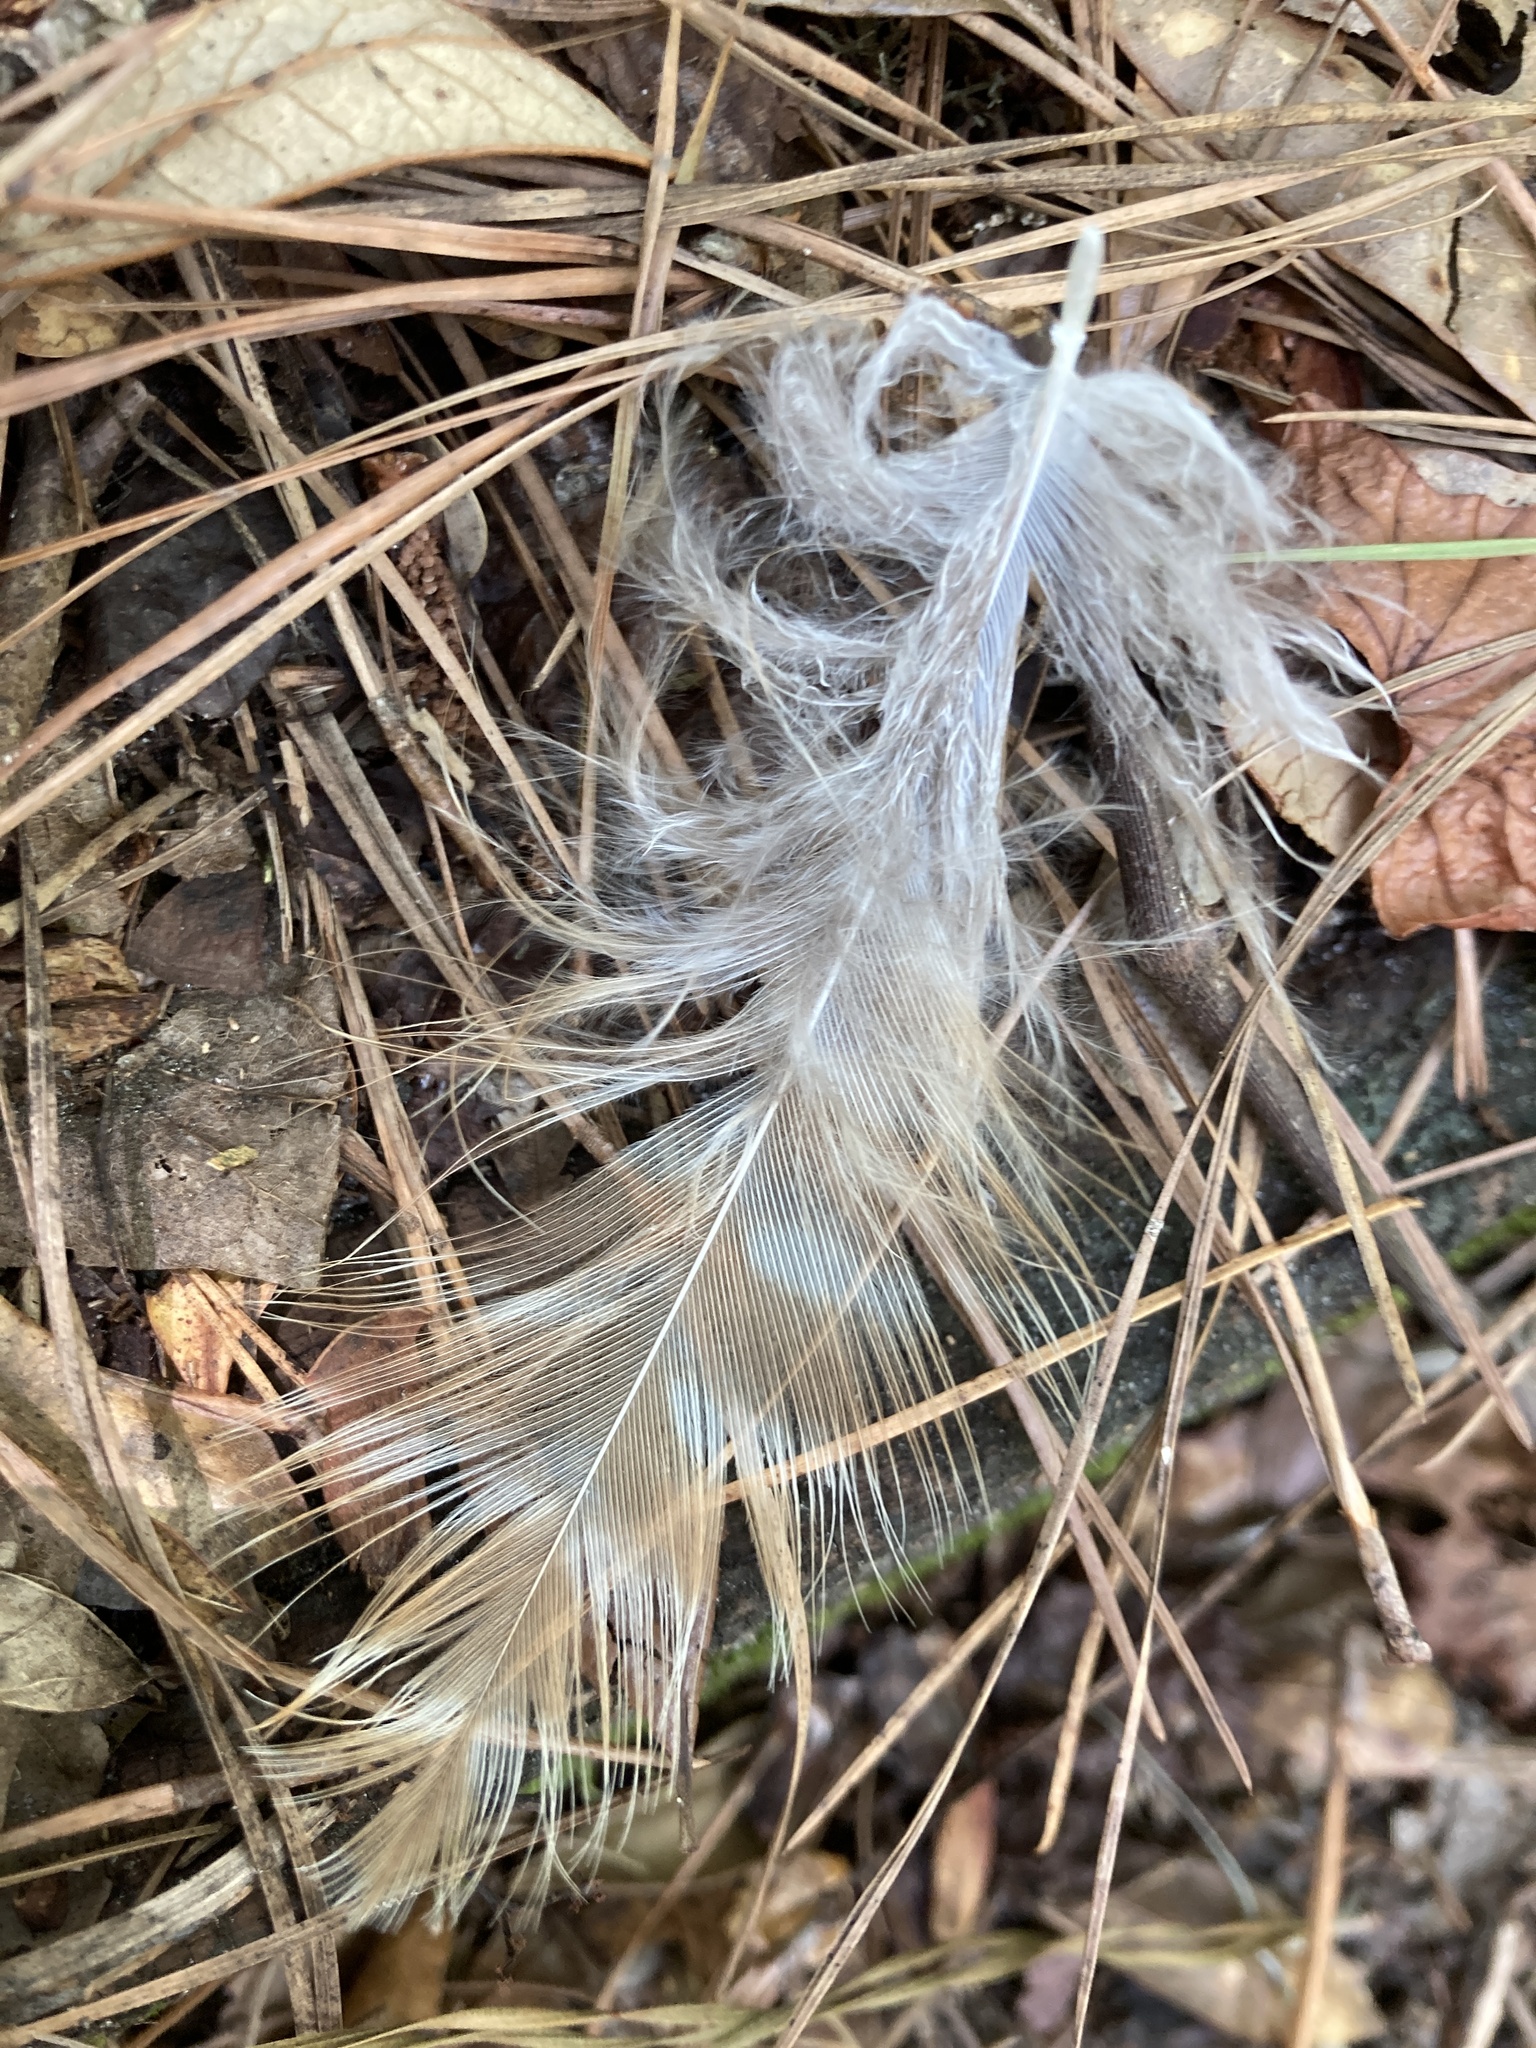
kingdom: Animalia
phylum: Chordata
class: Aves
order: Accipitriformes
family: Accipitridae
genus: Buteo
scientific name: Buteo lineatus
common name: Red-shouldered hawk
